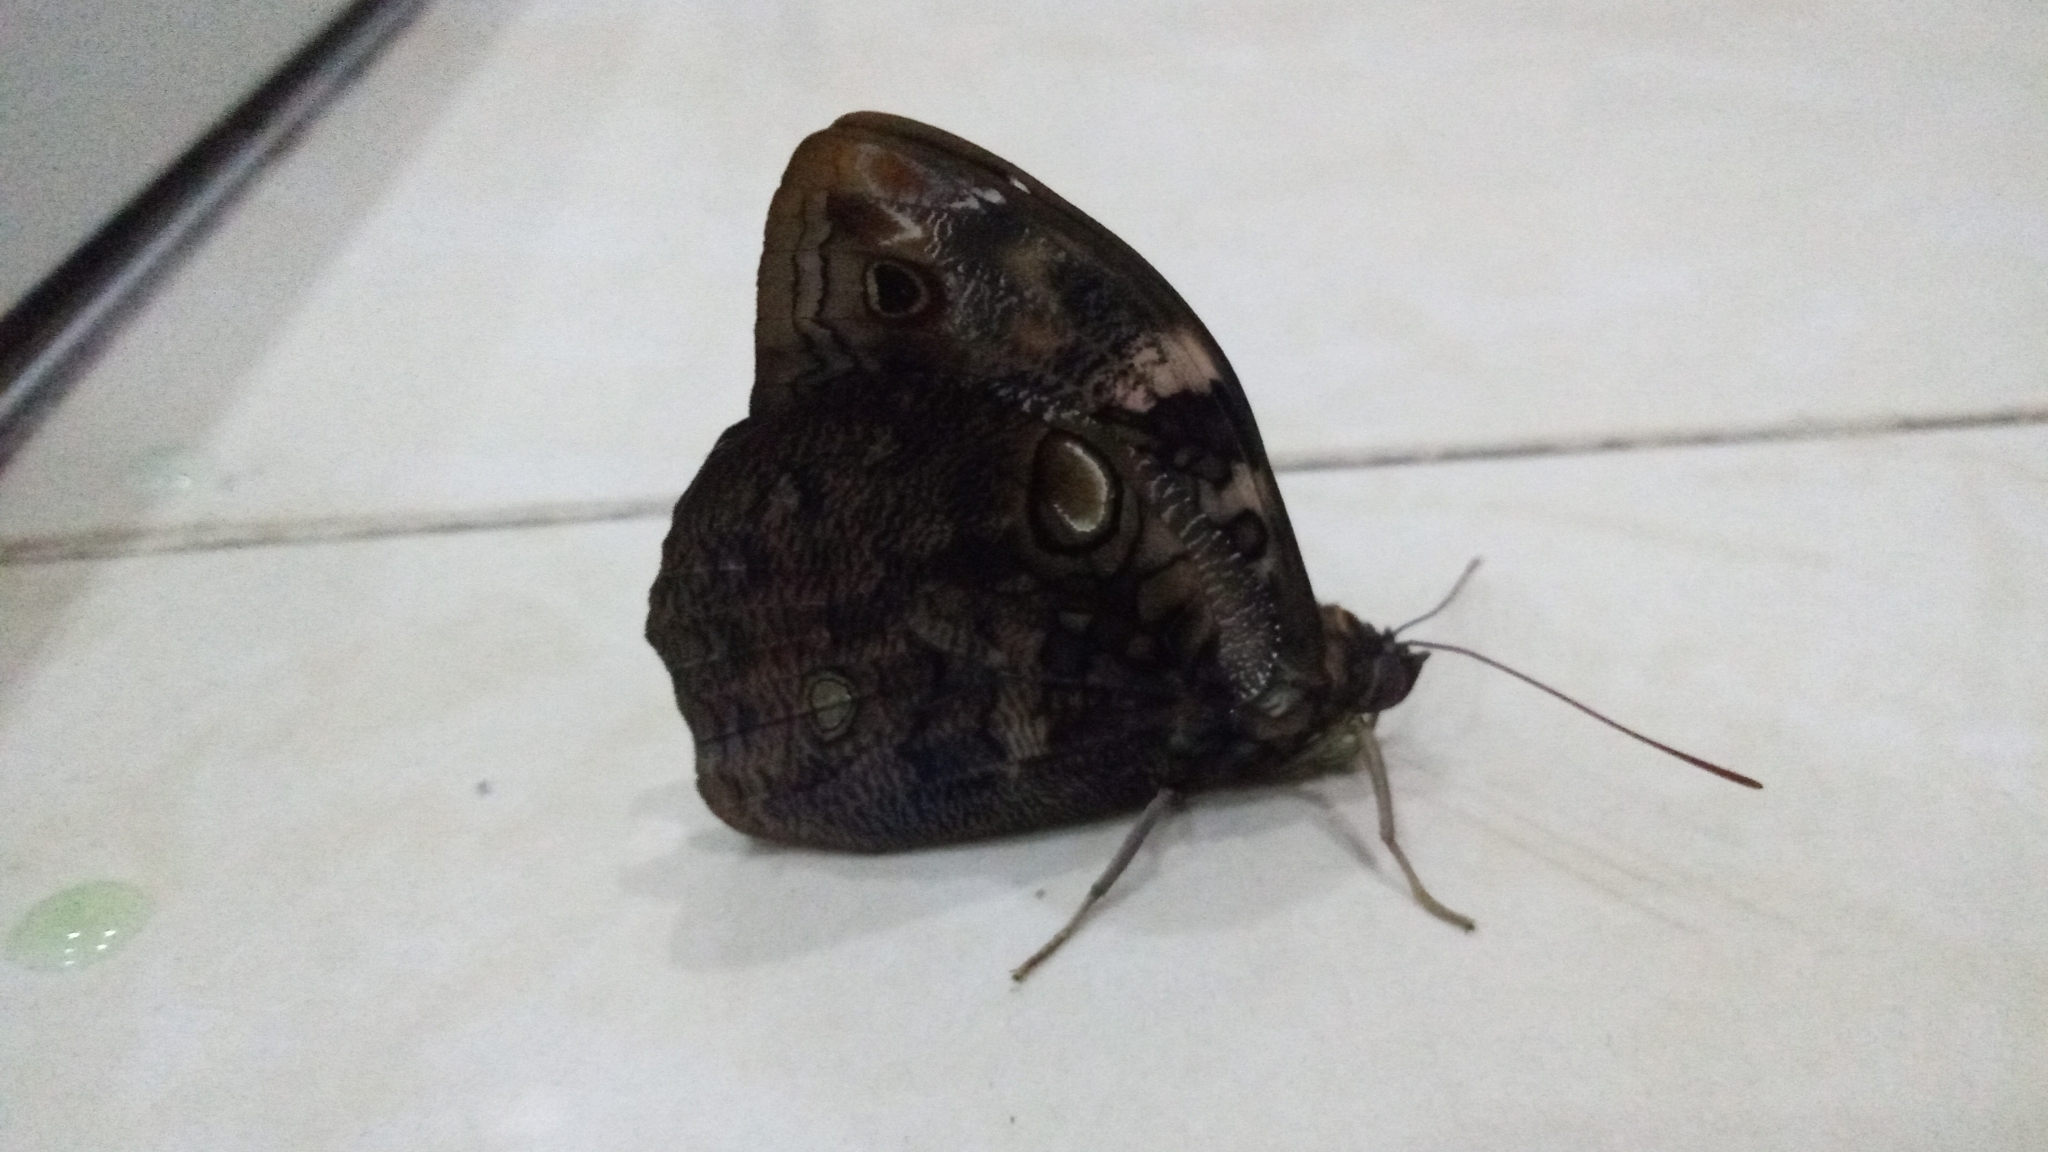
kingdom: Animalia
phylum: Arthropoda
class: Insecta
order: Lepidoptera
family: Nymphalidae
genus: Opsiphanes
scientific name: Opsiphanes invirae
